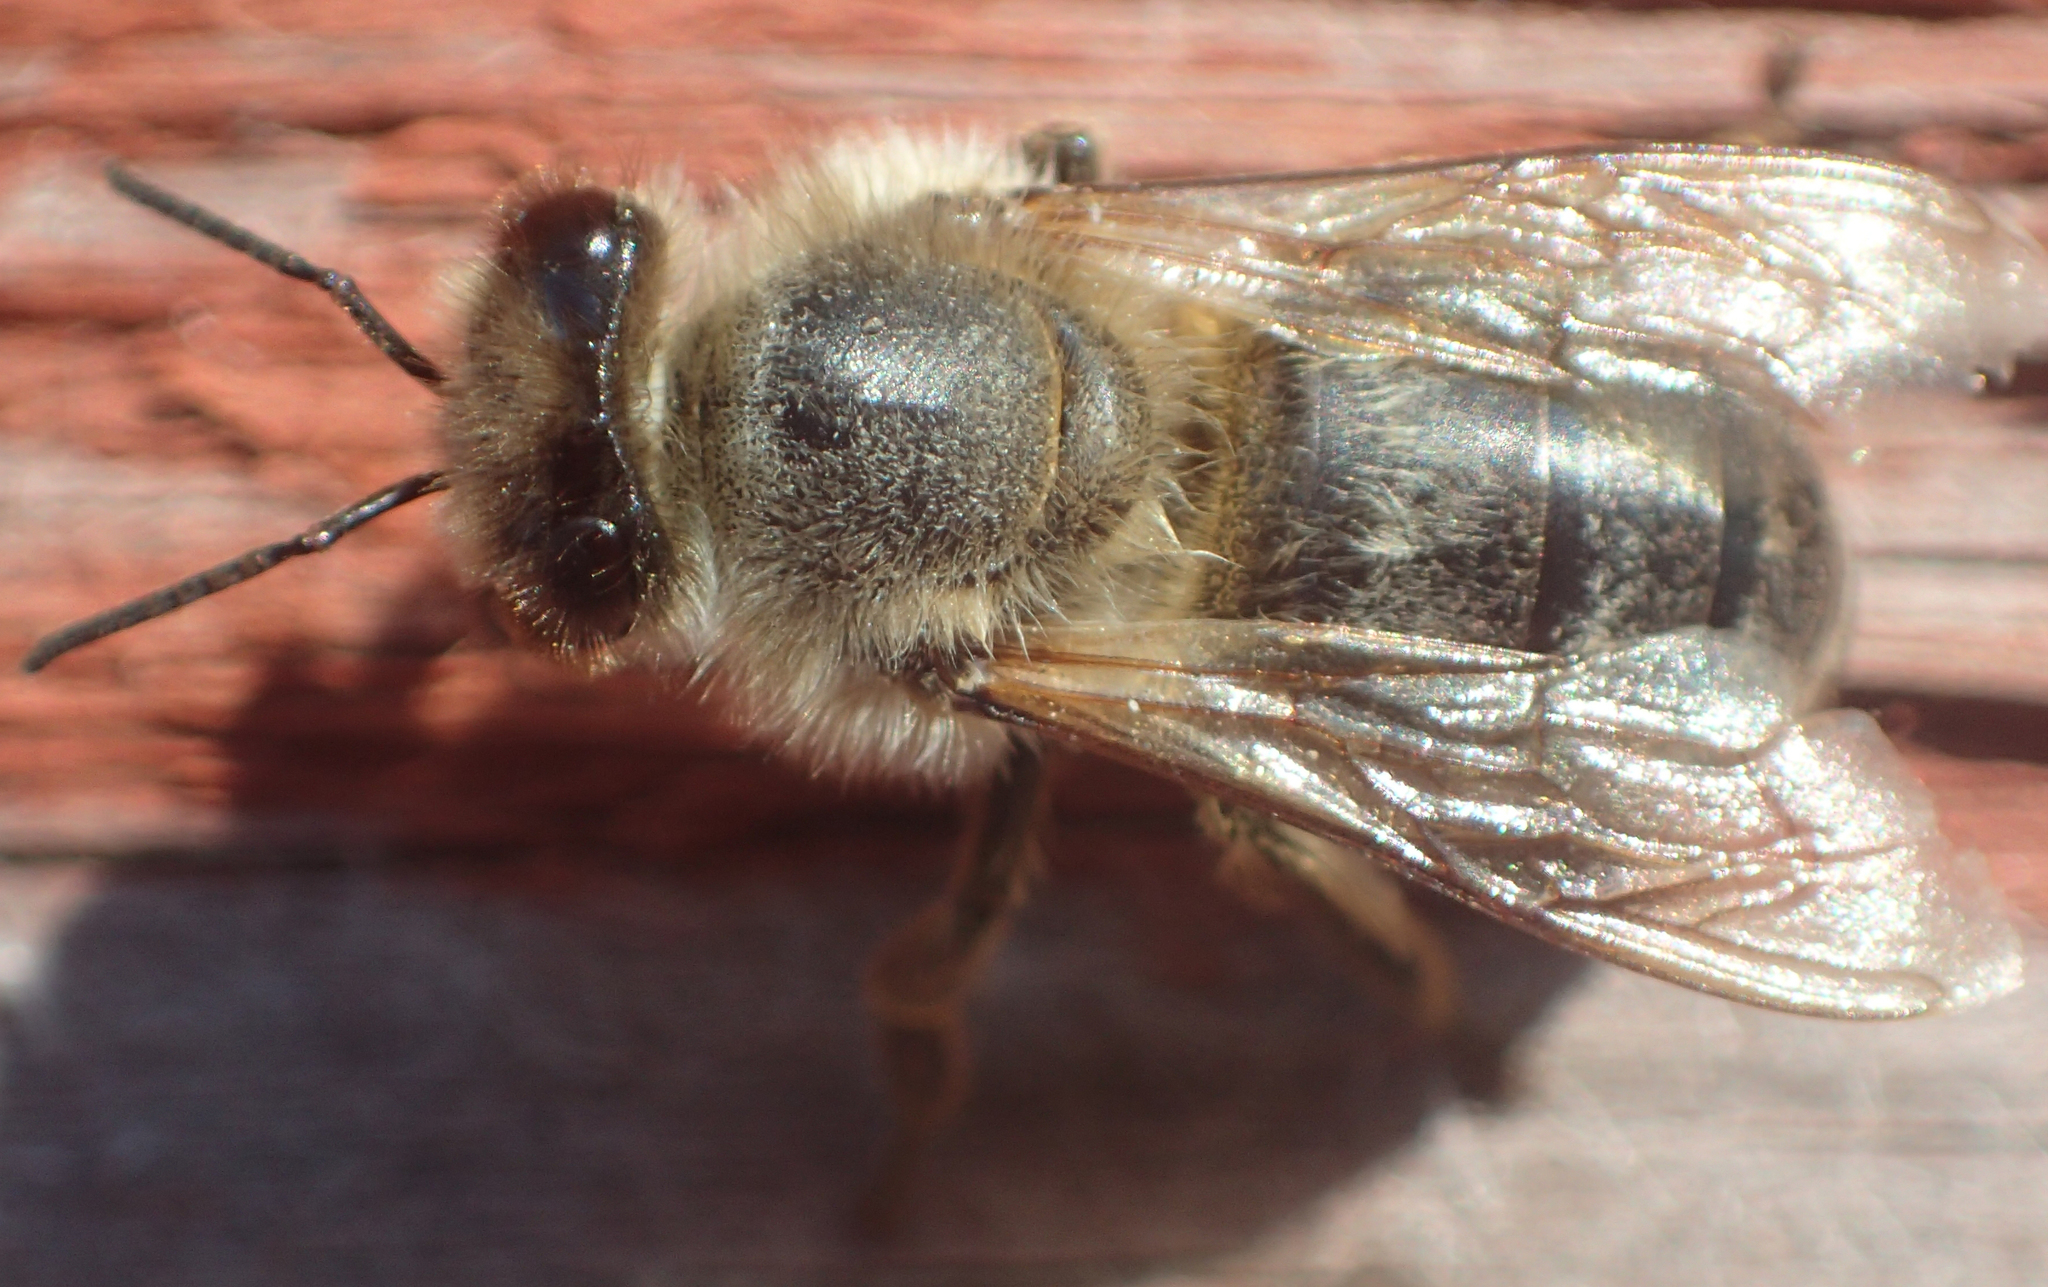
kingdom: Animalia
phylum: Arthropoda
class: Insecta
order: Hymenoptera
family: Apidae
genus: Apis
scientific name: Apis mellifera
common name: Honey bee
